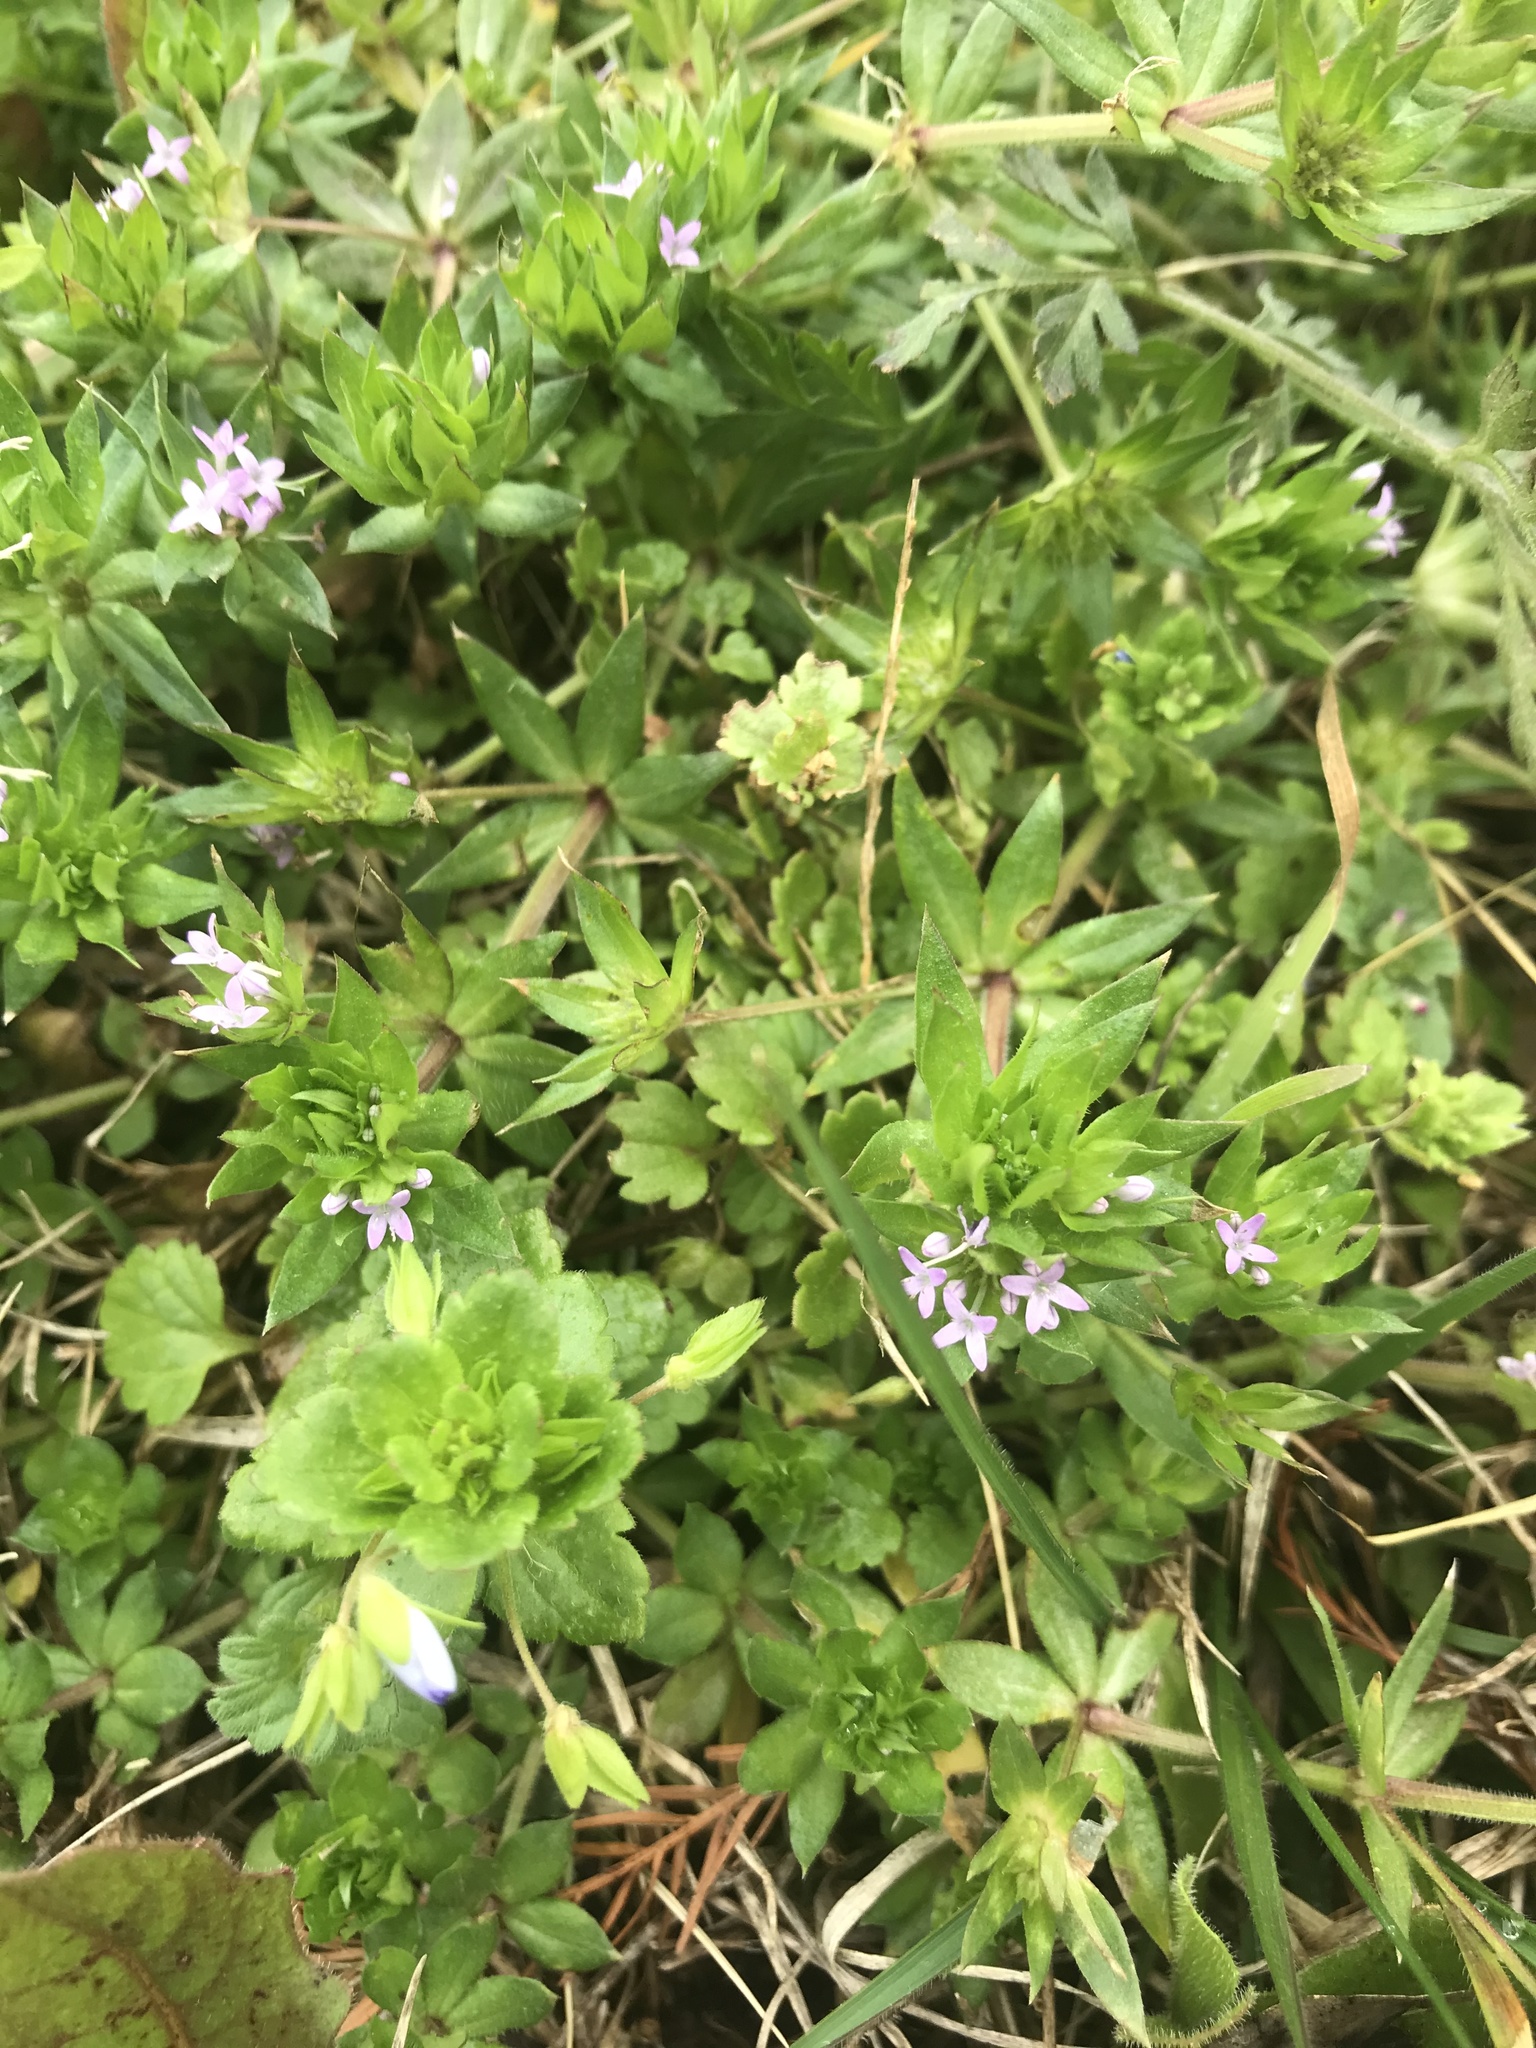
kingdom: Plantae
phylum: Tracheophyta
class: Magnoliopsida
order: Gentianales
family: Rubiaceae
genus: Sherardia
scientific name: Sherardia arvensis
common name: Field madder
